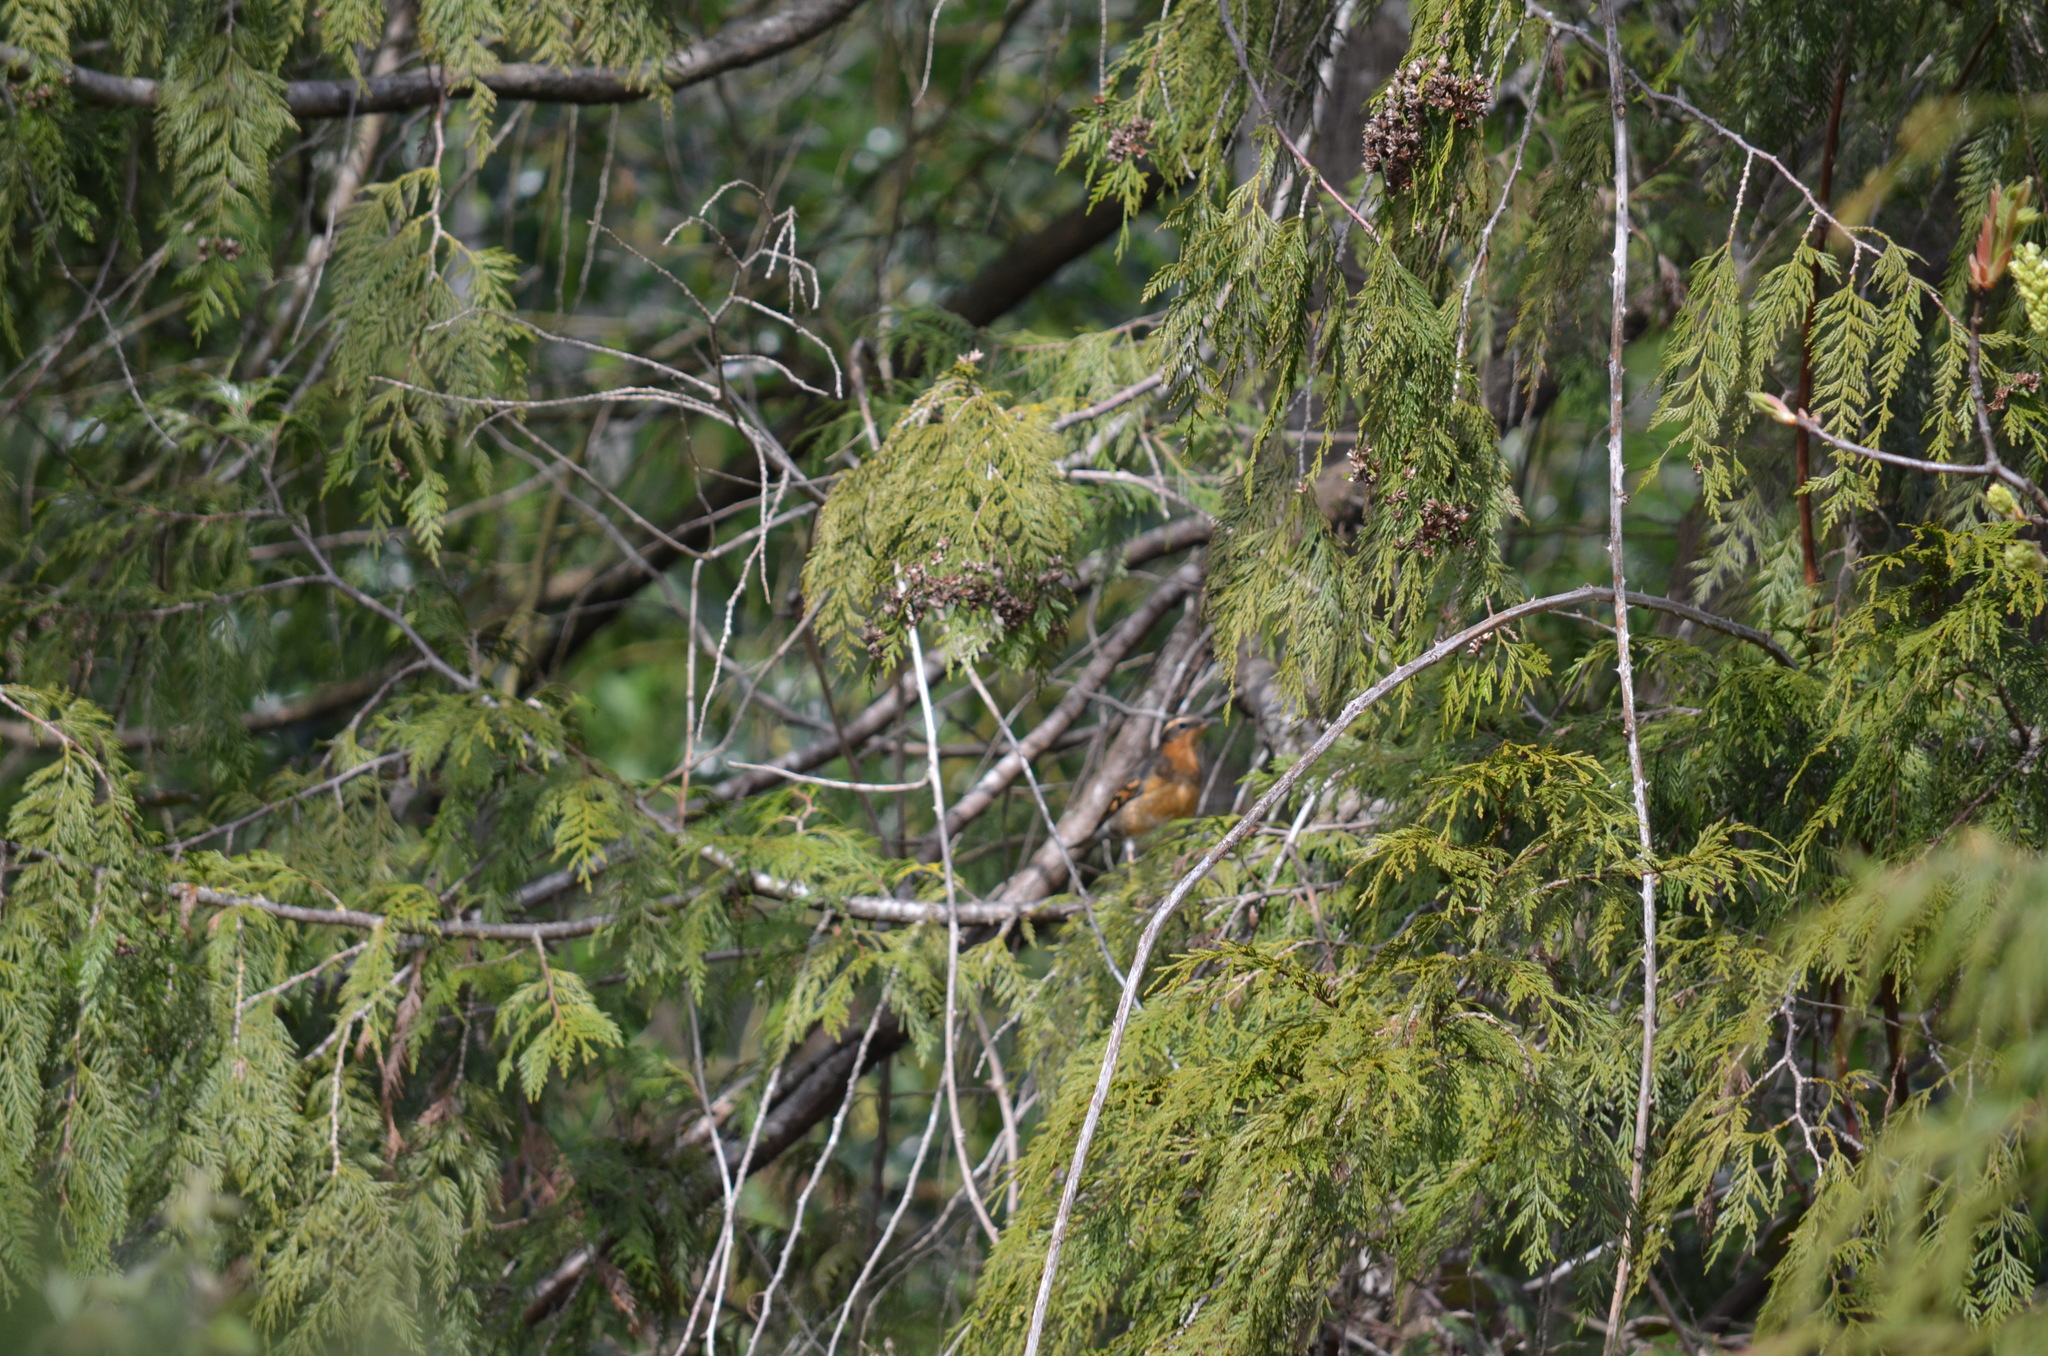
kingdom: Animalia
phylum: Chordata
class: Aves
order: Passeriformes
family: Turdidae
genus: Ixoreus
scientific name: Ixoreus naevius
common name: Varied thrush
